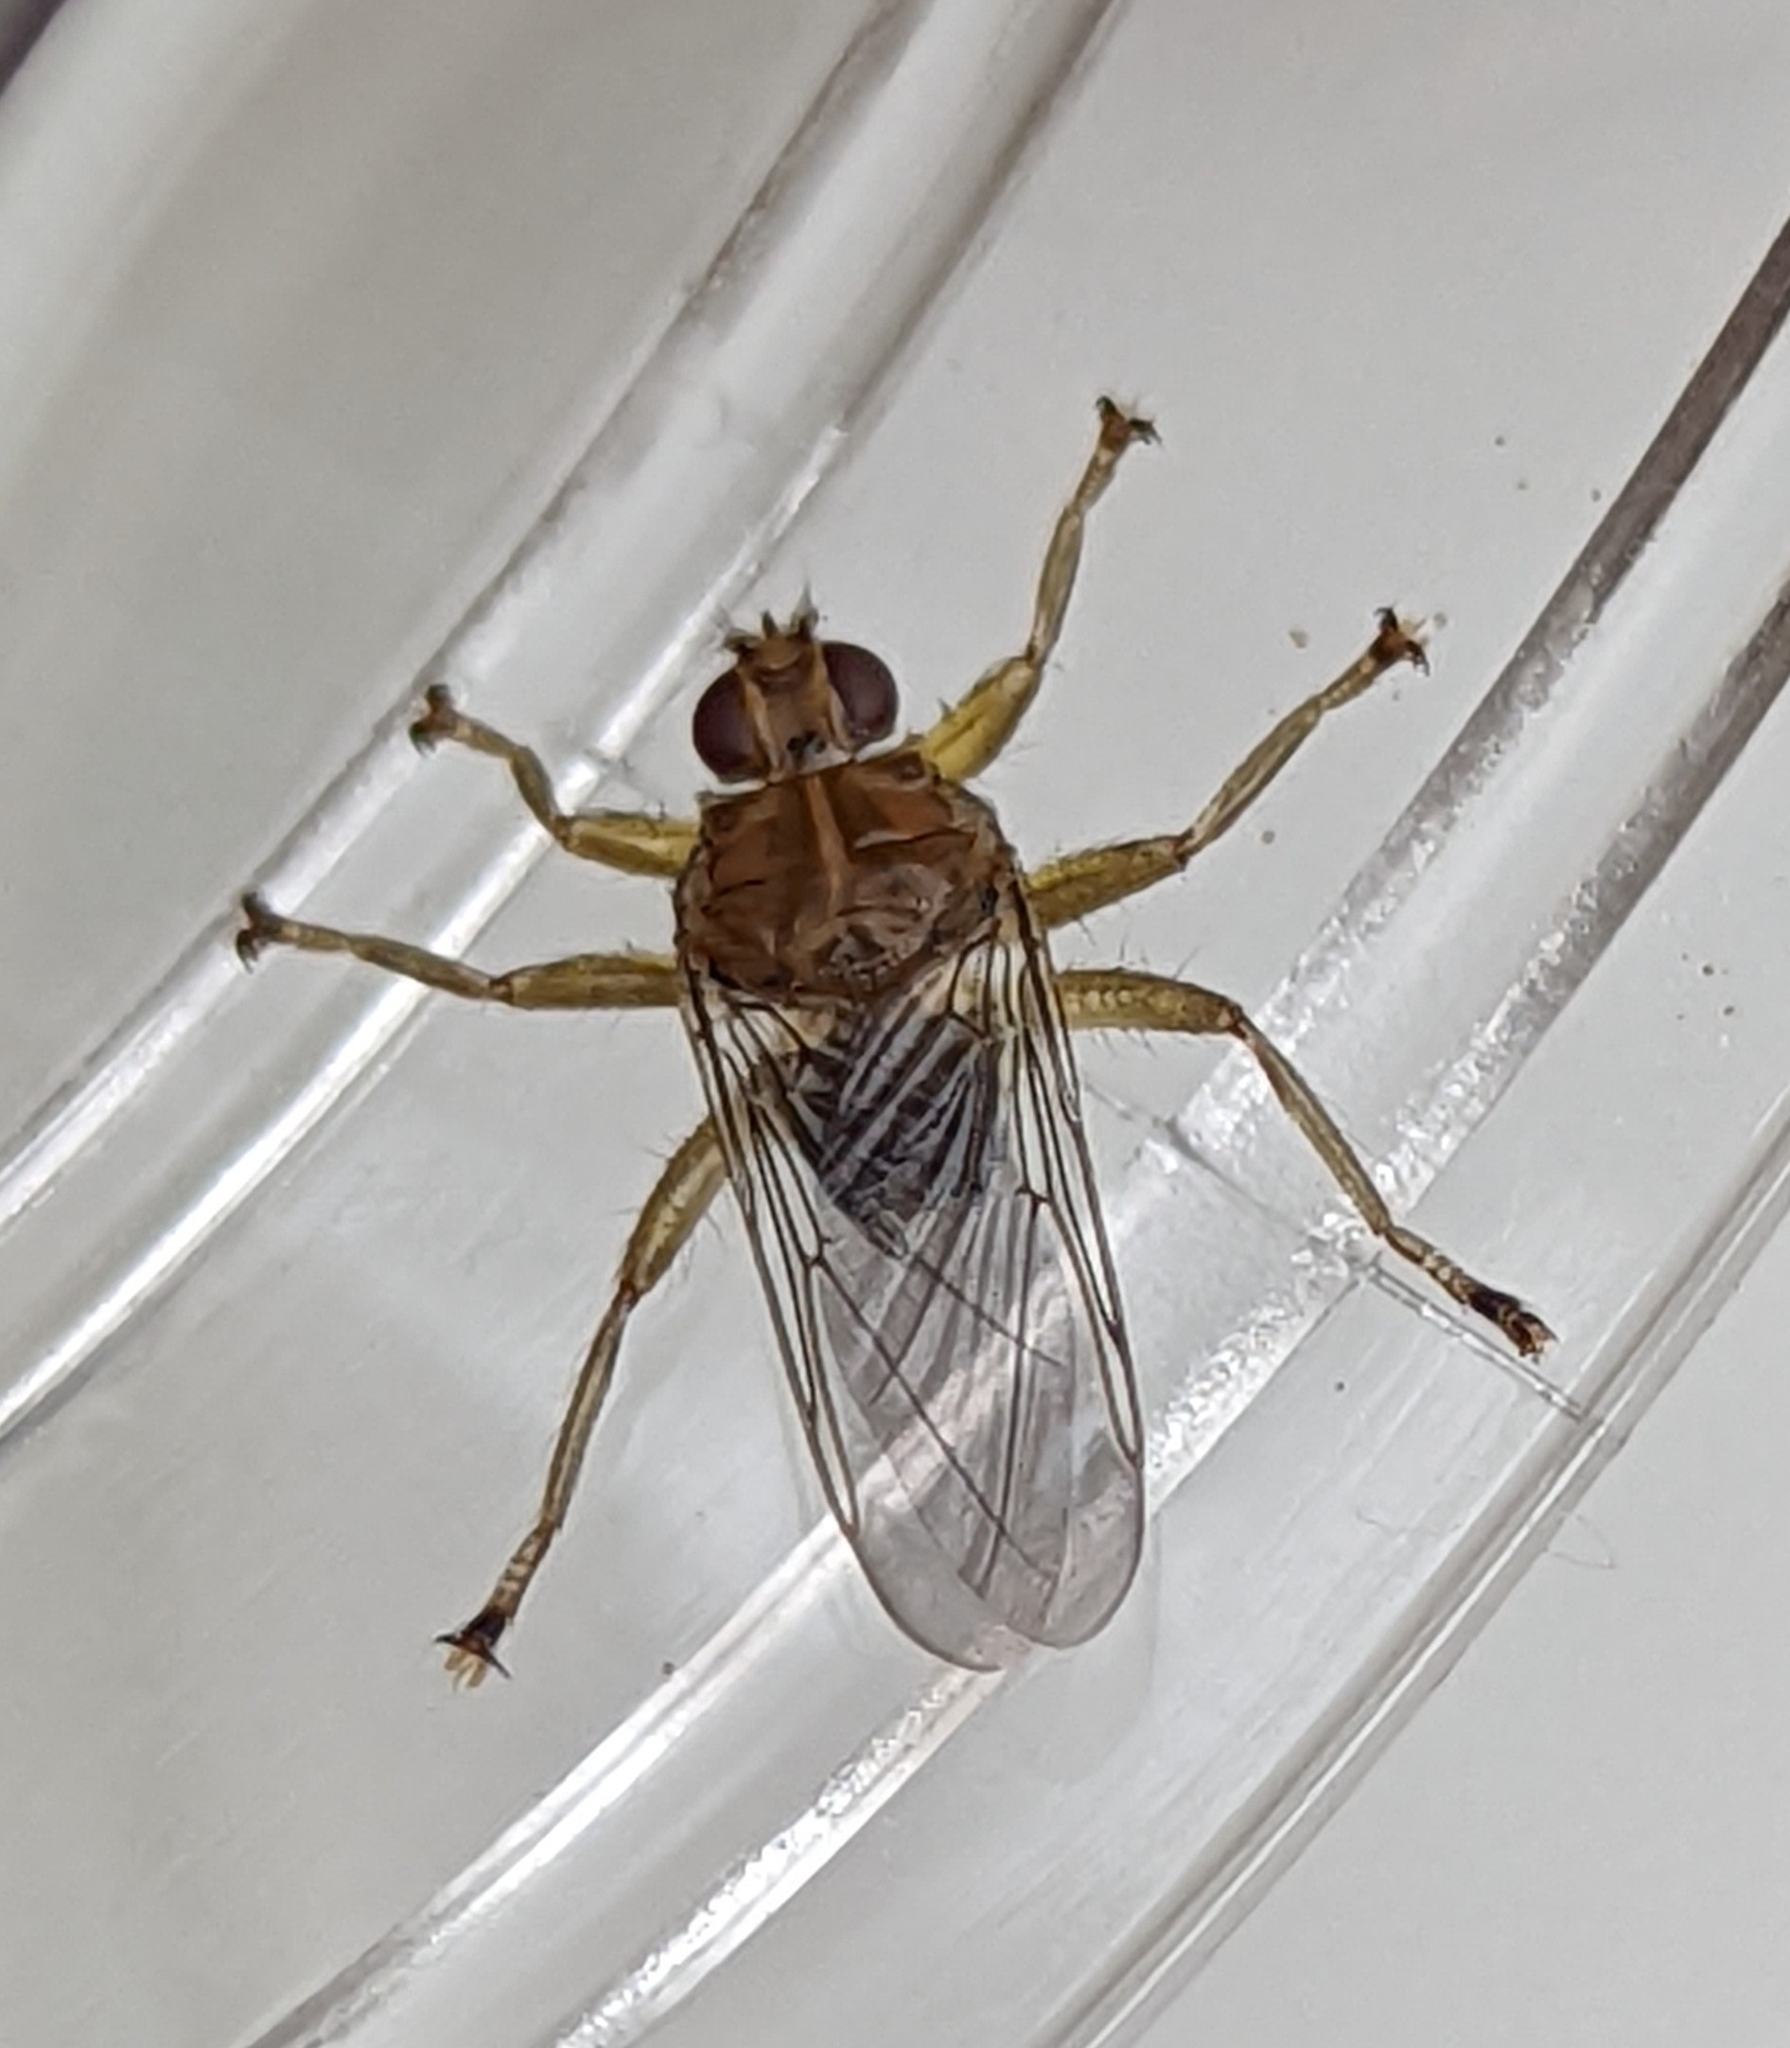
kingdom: Animalia
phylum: Arthropoda
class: Insecta
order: Diptera
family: Hippoboscidae
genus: Ornithomya
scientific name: Ornithomya avicularia
